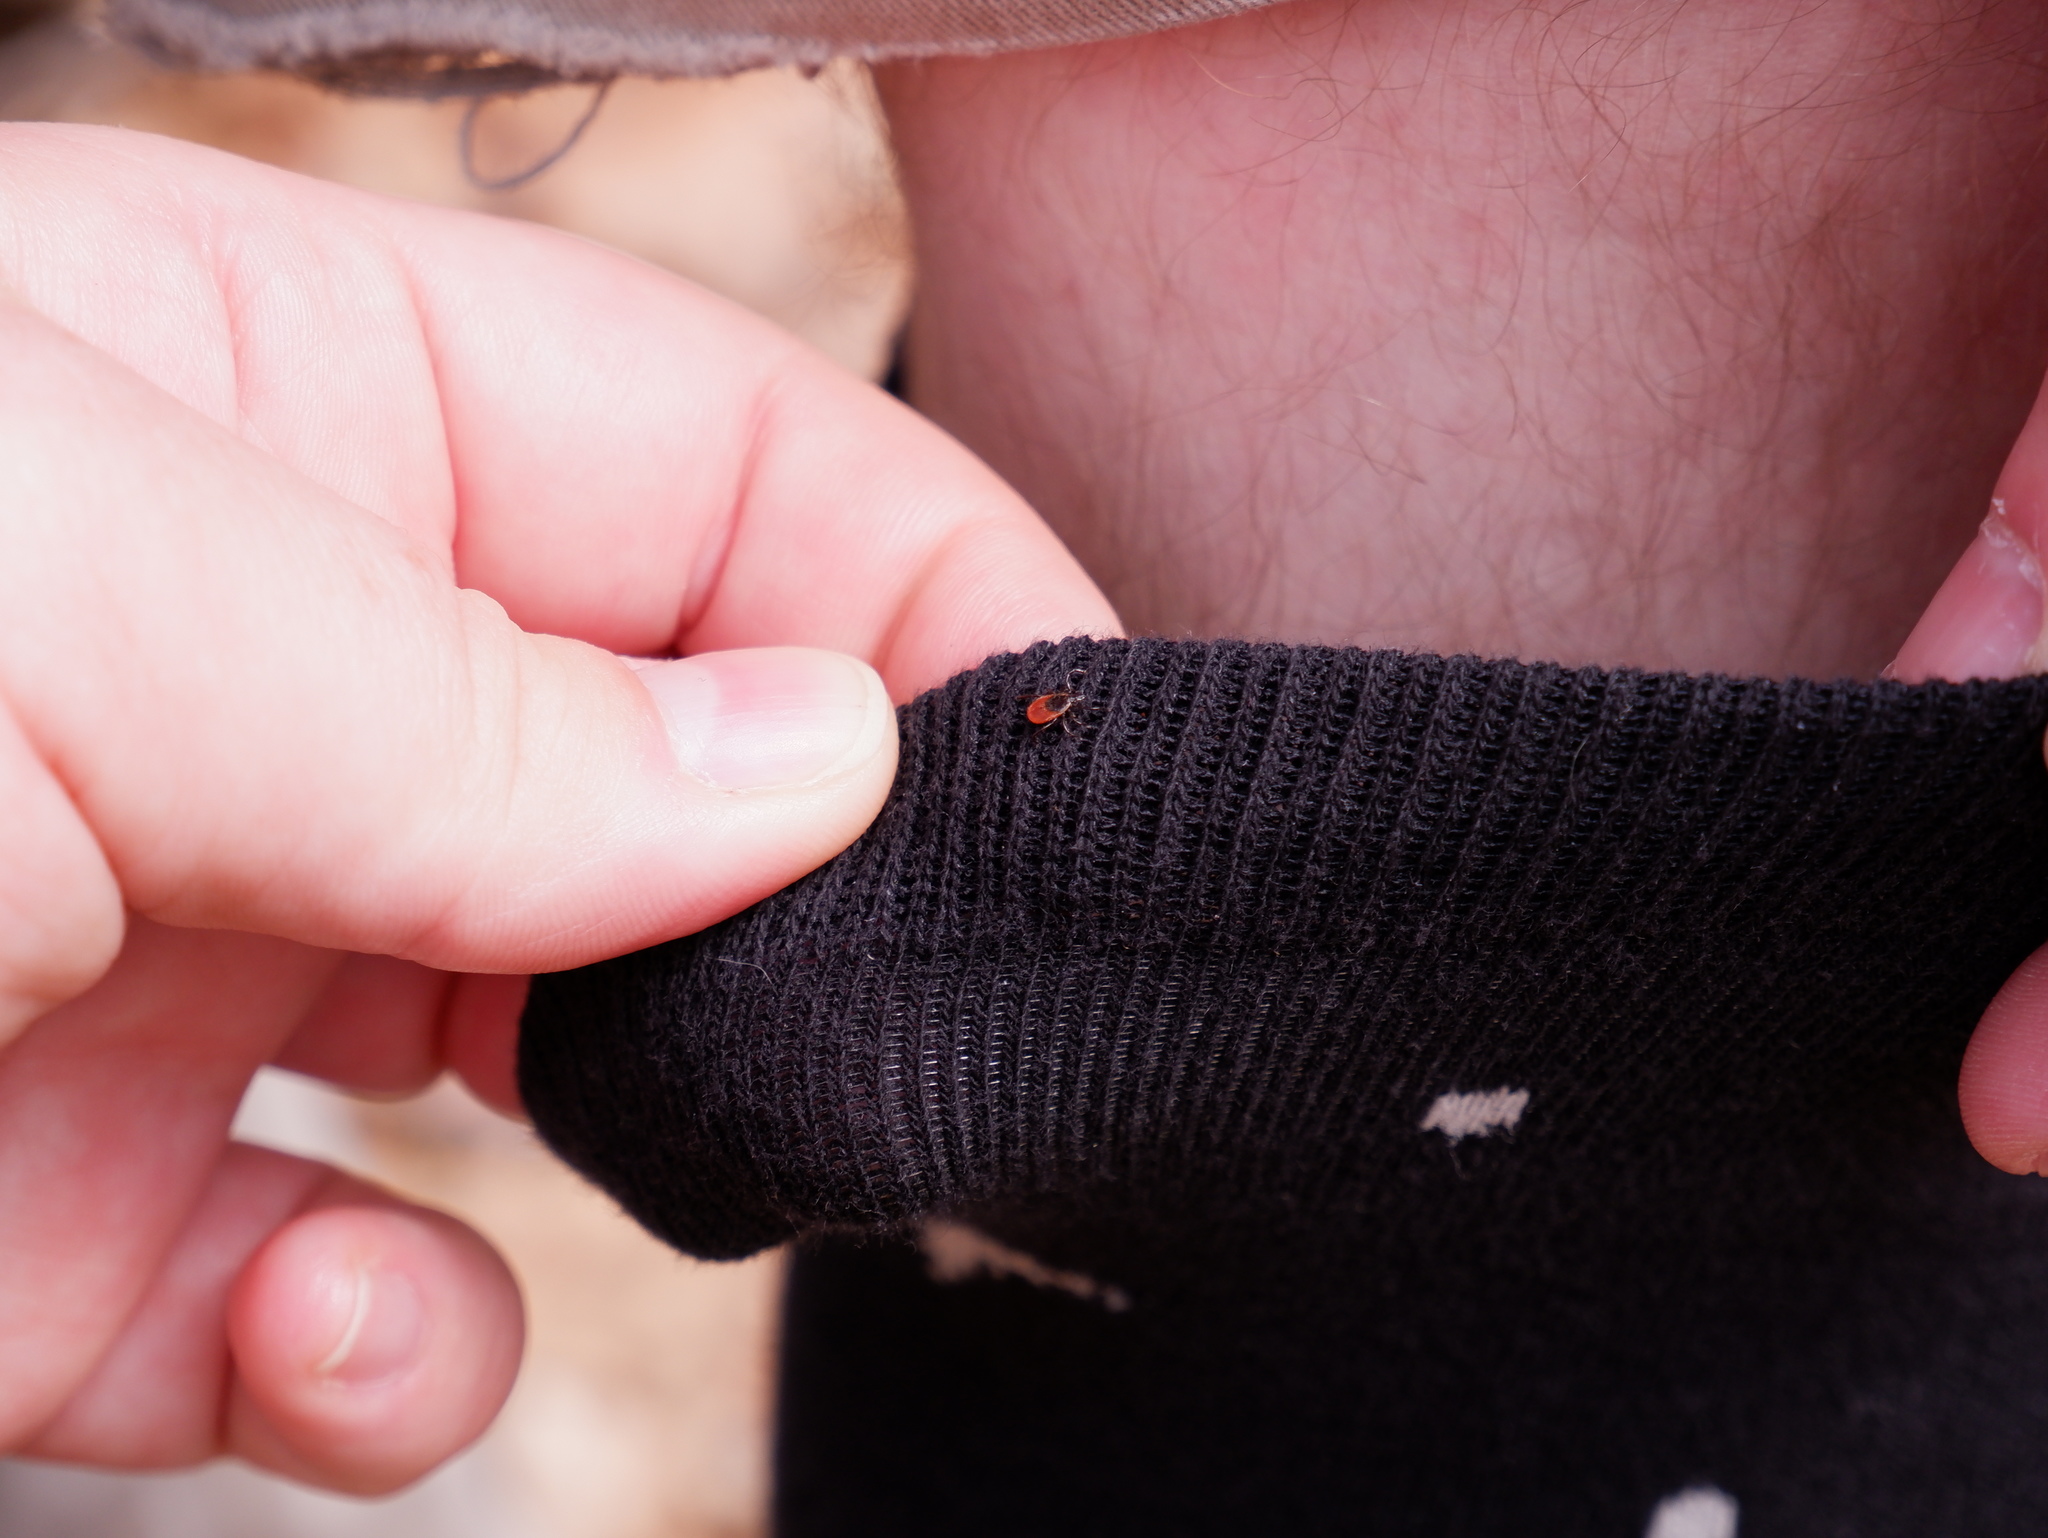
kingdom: Animalia
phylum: Arthropoda
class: Arachnida
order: Ixodida
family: Ixodidae
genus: Ixodes
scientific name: Ixodes scapularis
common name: Black legged tick
